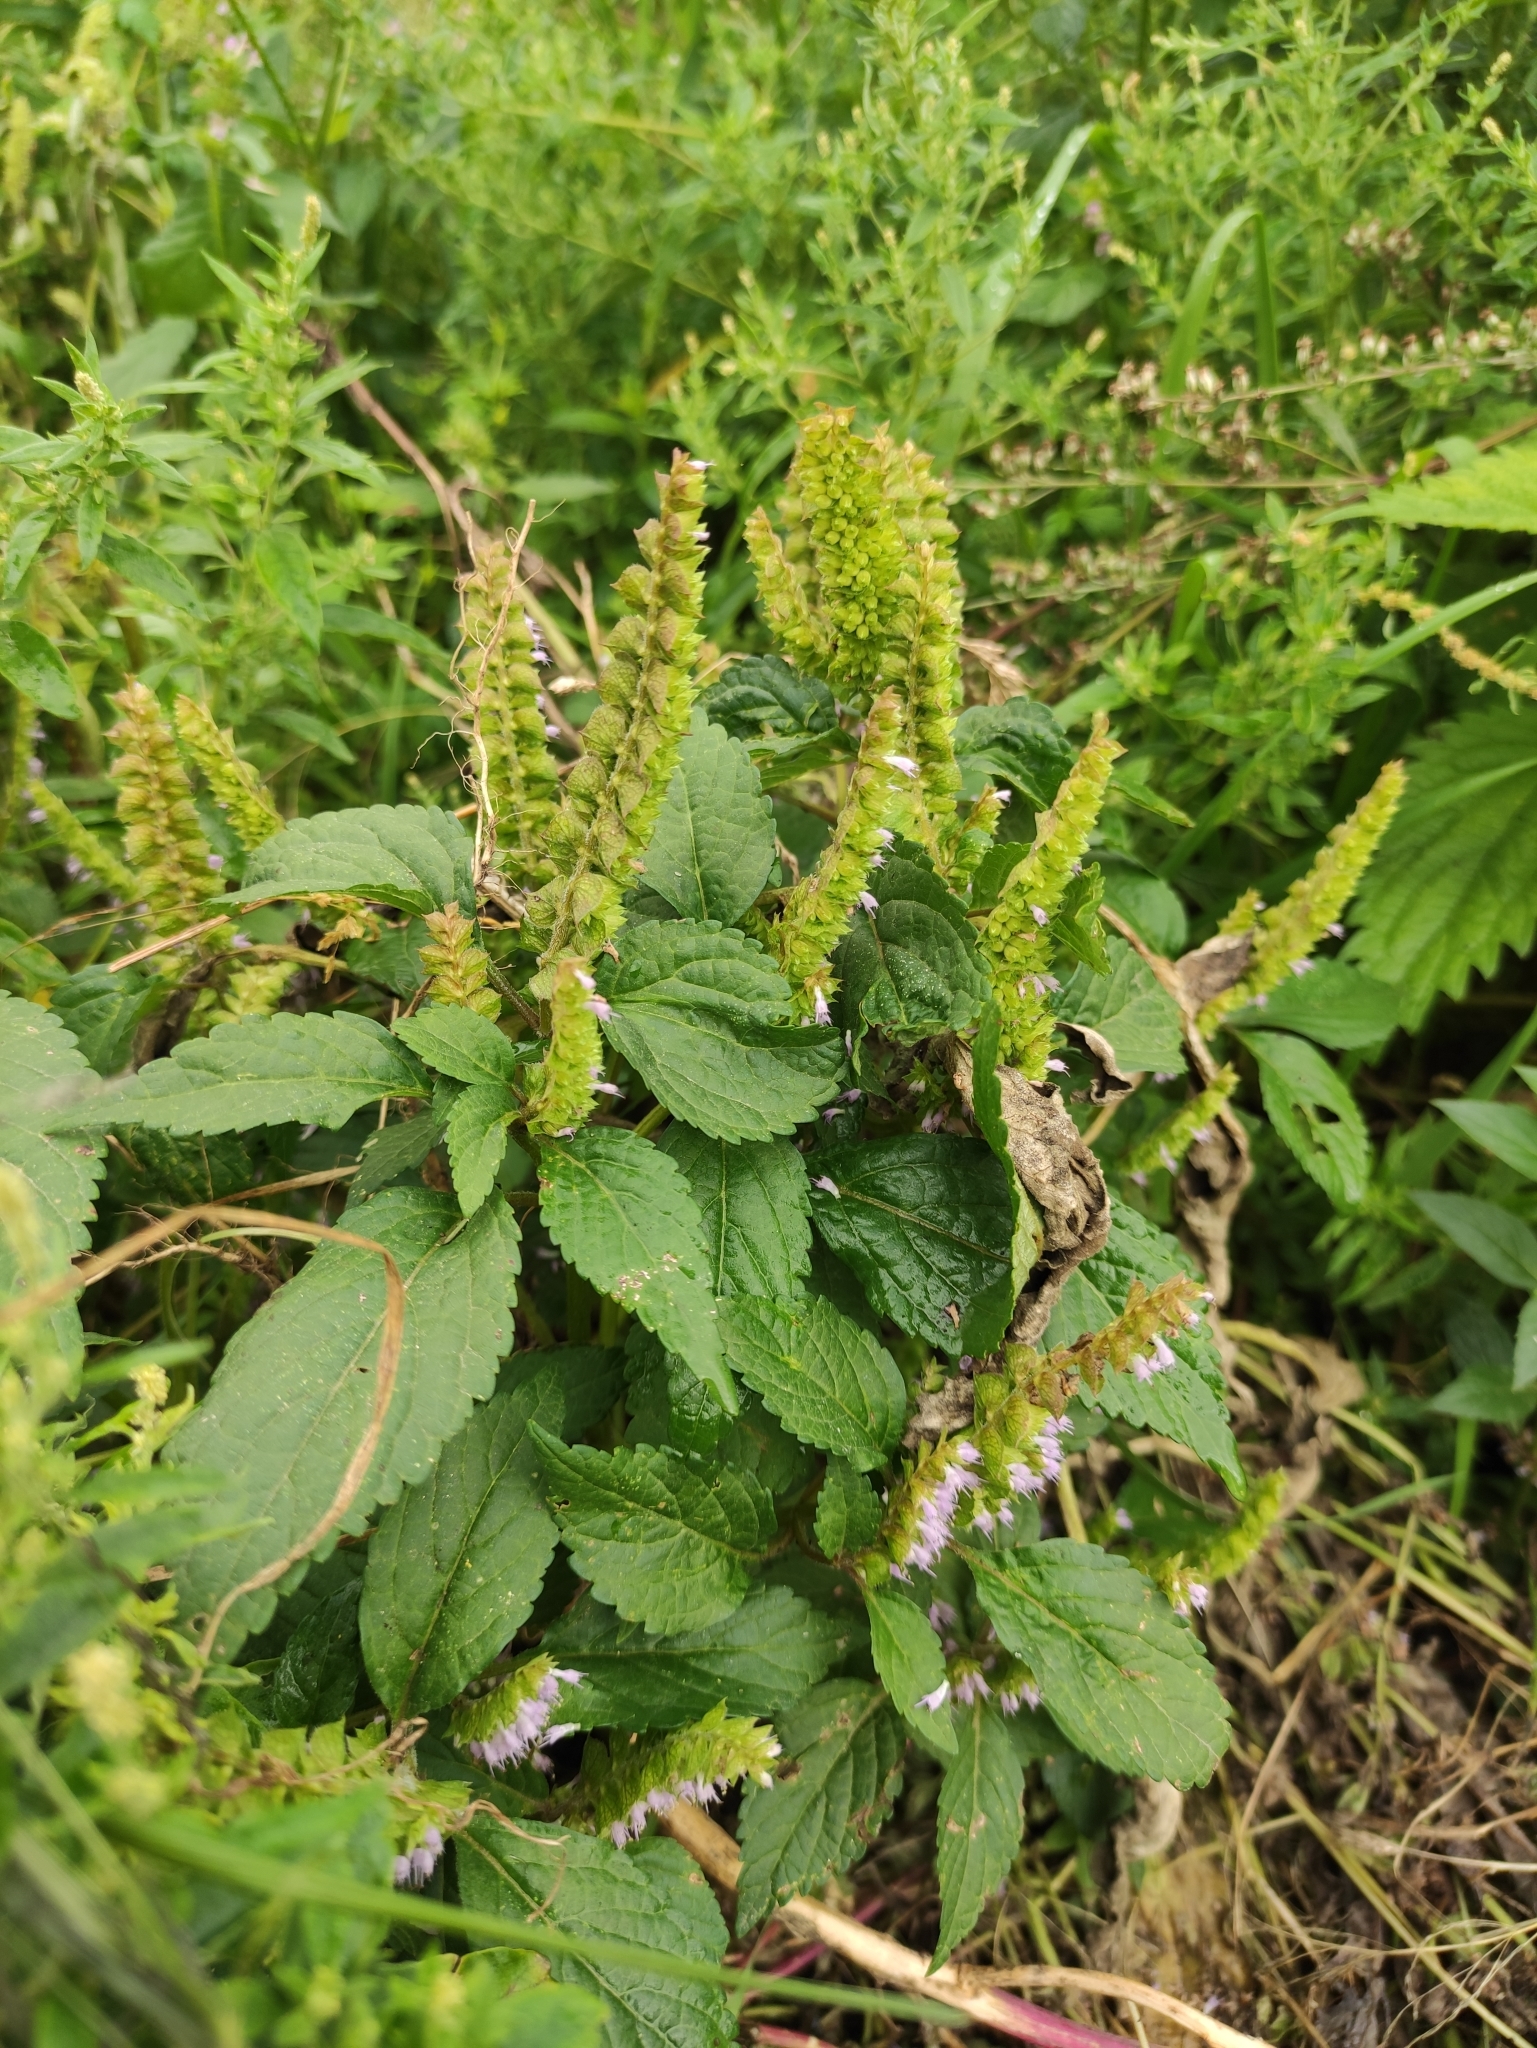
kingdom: Plantae
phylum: Tracheophyta
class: Magnoliopsida
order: Lamiales
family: Lamiaceae
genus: Elsholtzia
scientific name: Elsholtzia ciliata
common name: Ciliate elsholtzia
